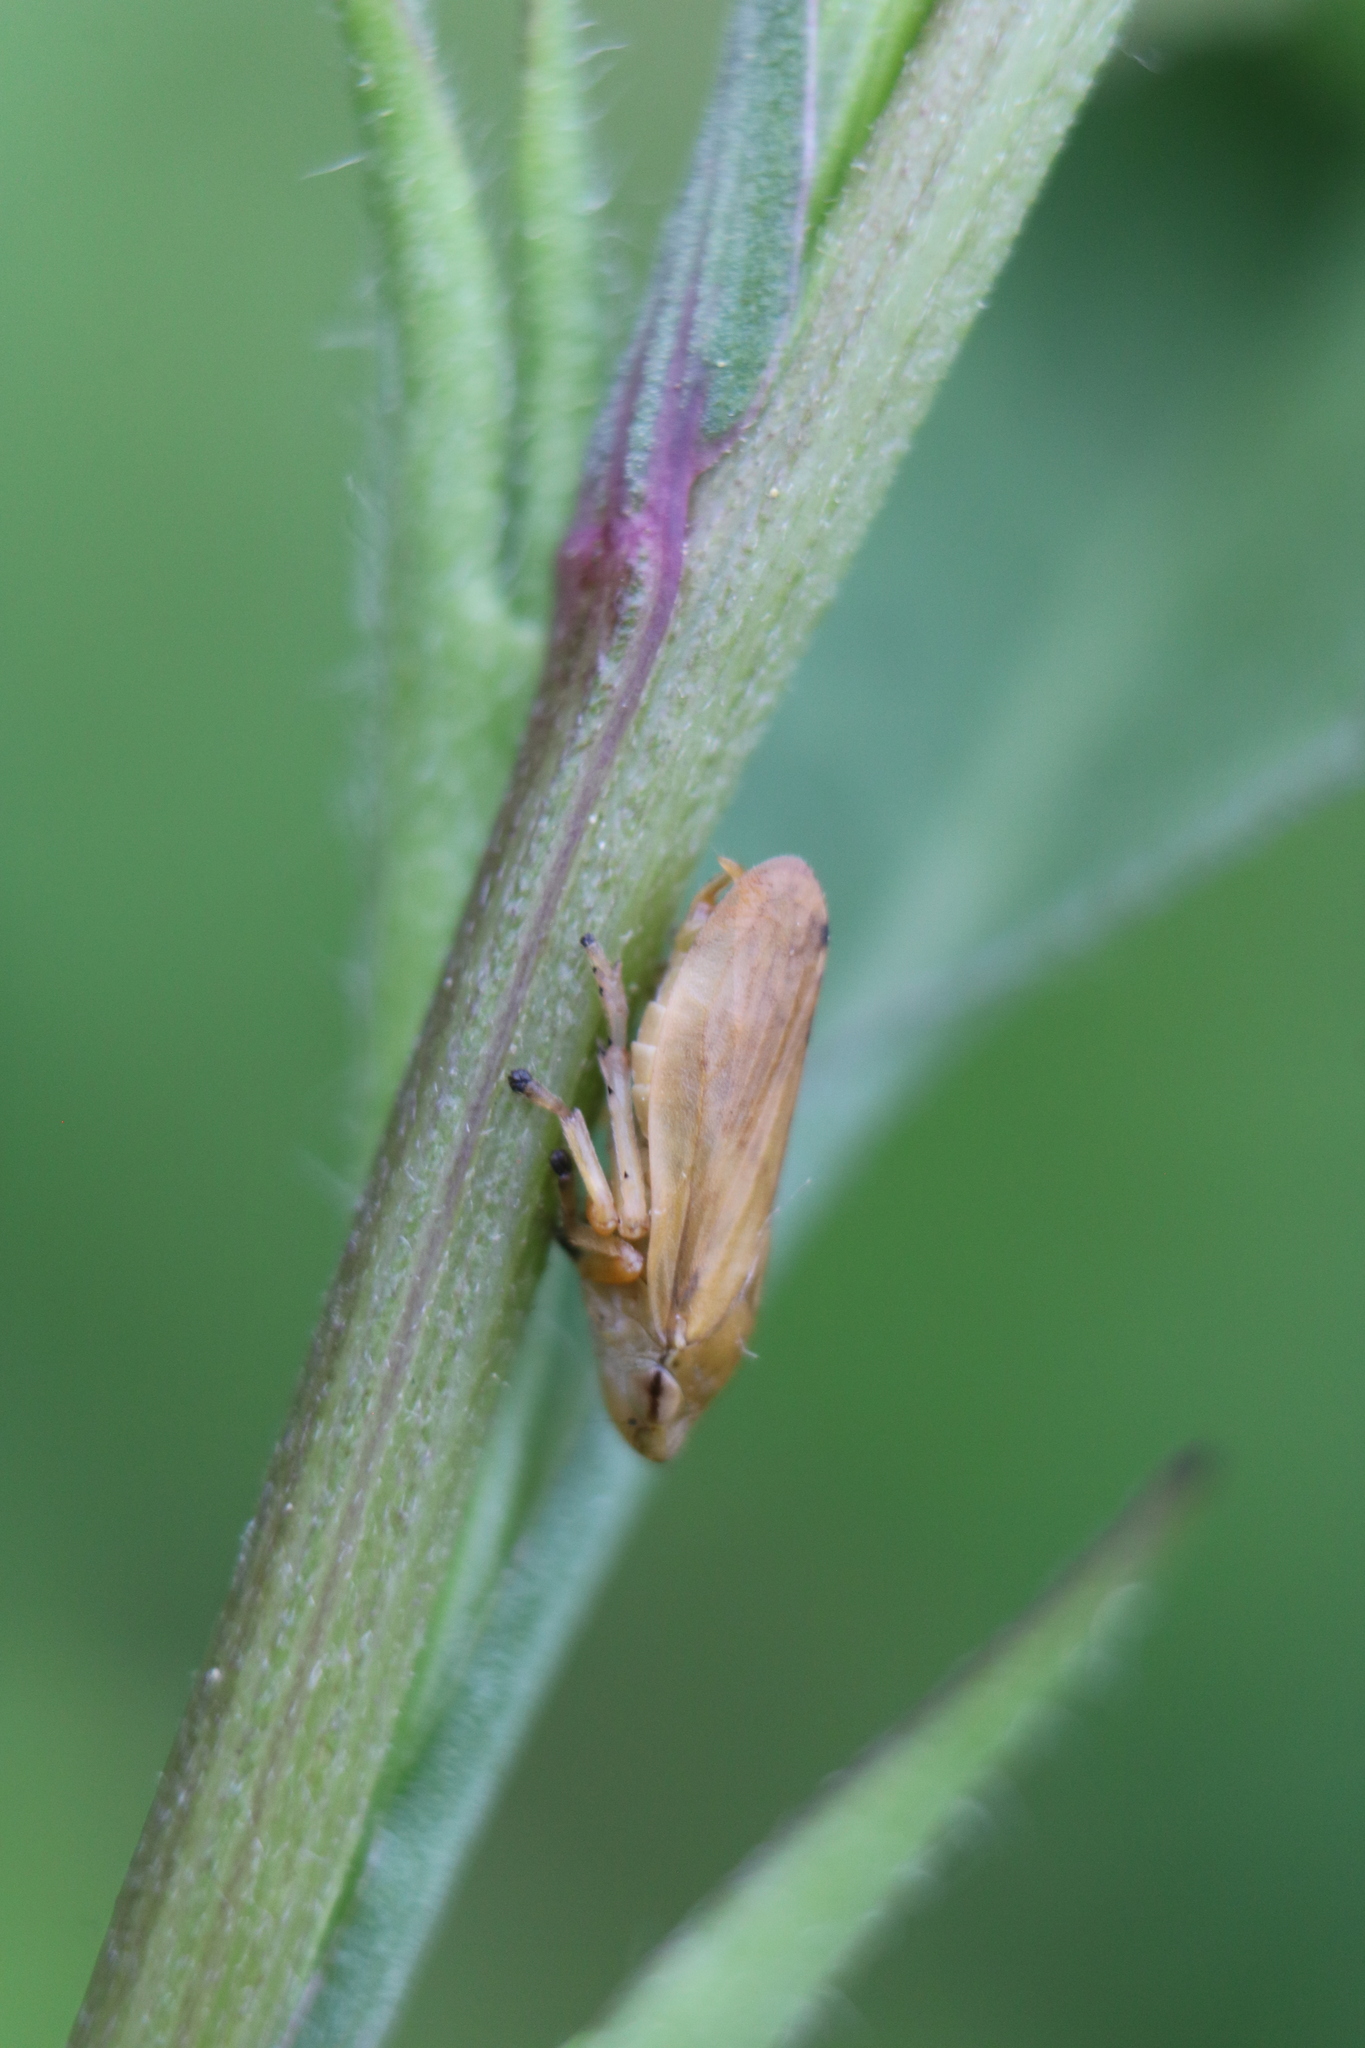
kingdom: Animalia
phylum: Arthropoda
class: Insecta
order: Hemiptera
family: Aphrophoridae
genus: Philaenus
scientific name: Philaenus spumarius
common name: Meadow spittlebug
